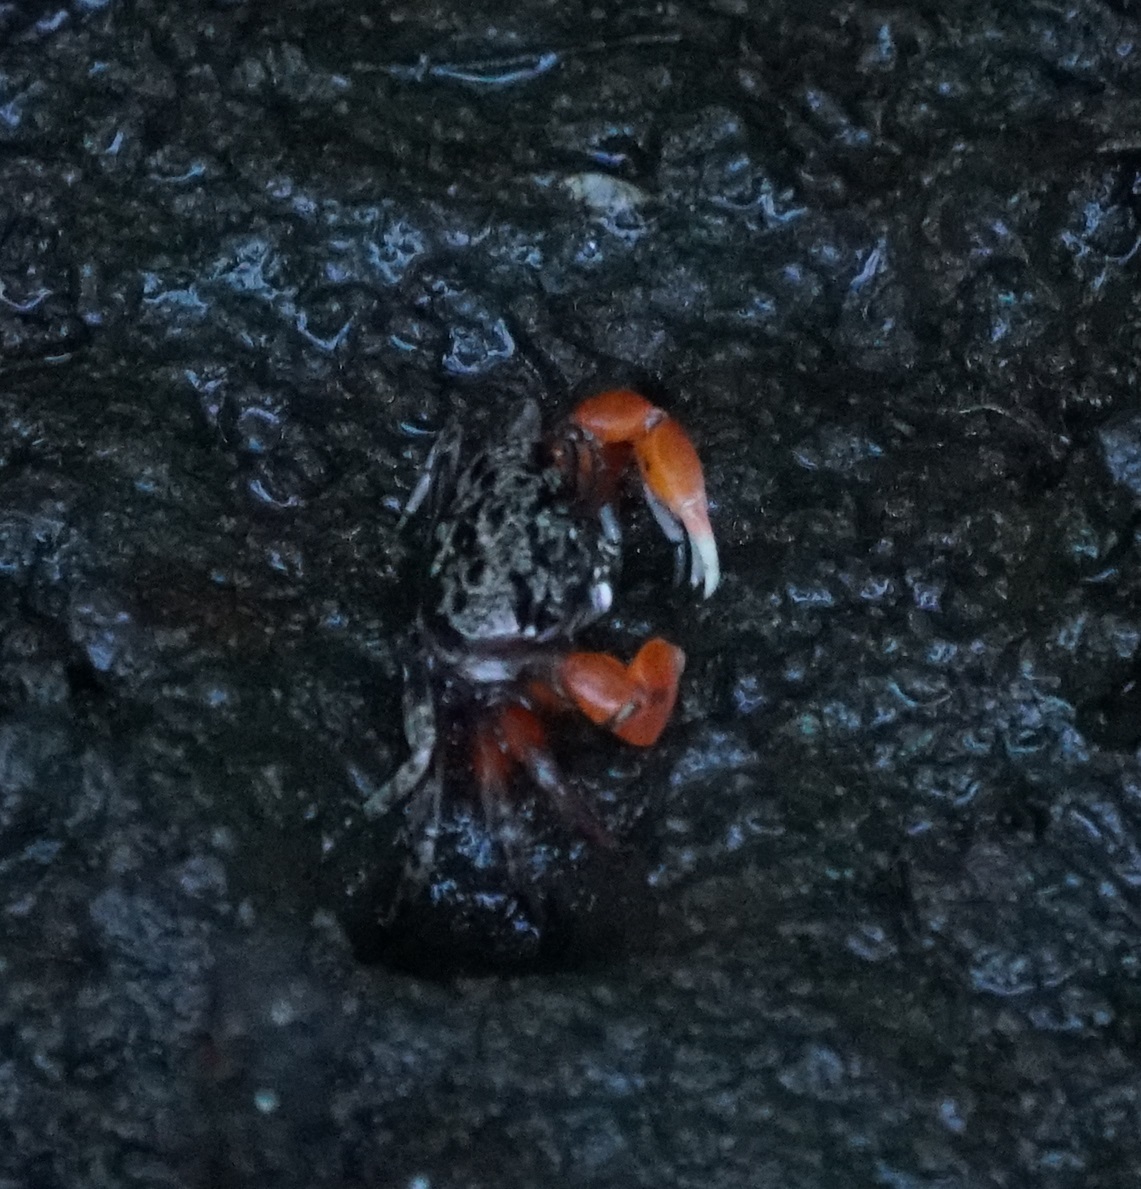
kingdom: Animalia
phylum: Arthropoda
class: Malacostraca
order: Decapoda
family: Heloeciidae
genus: Heloecius
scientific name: Heloecius cordiformis
